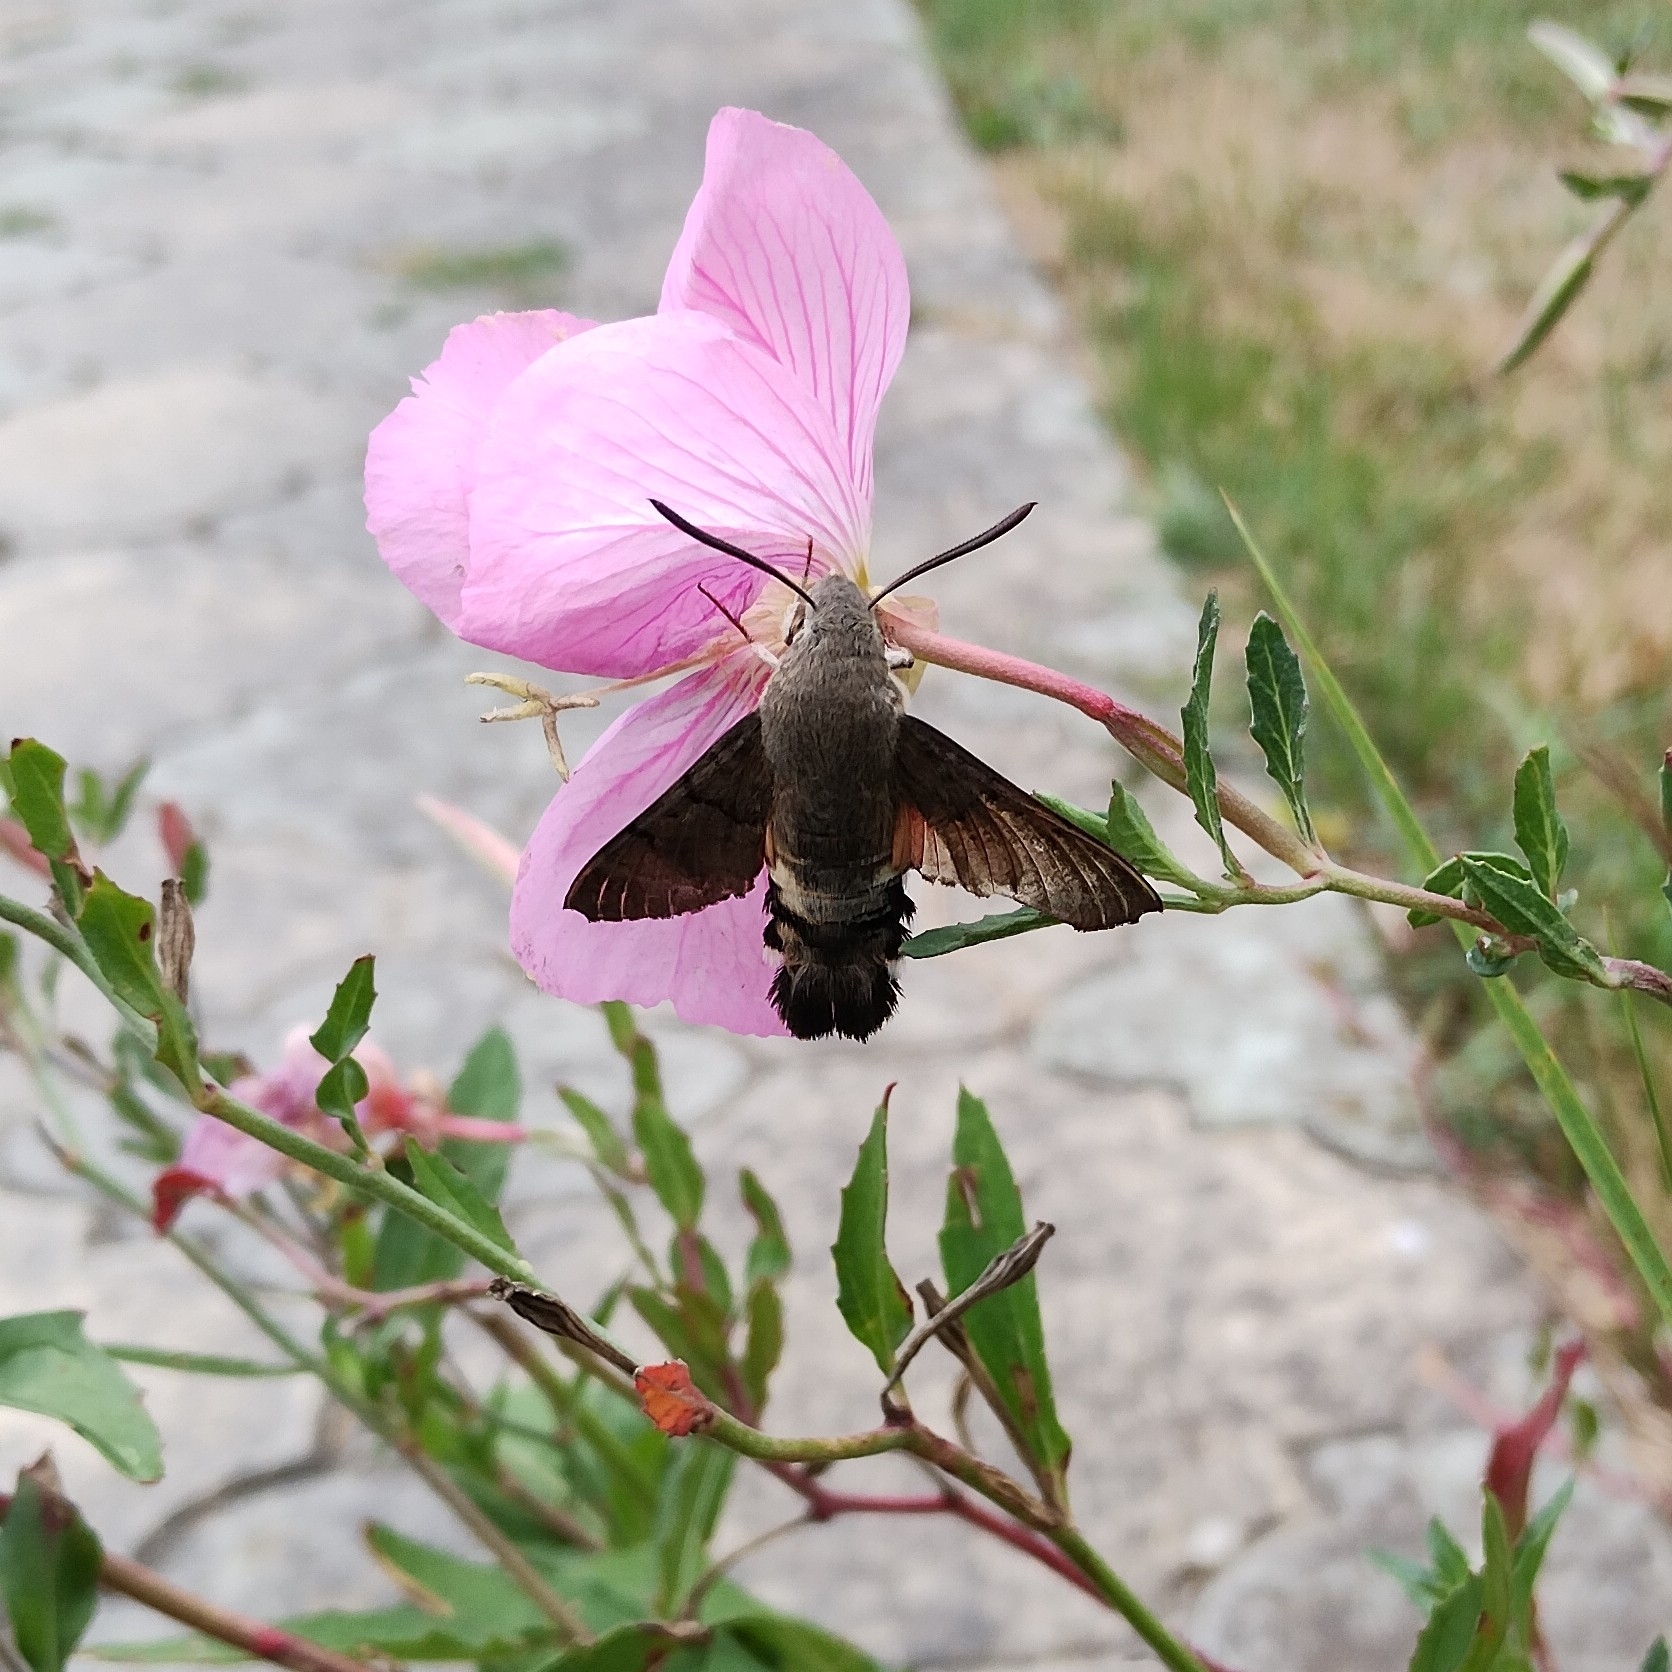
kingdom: Animalia
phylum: Arthropoda
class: Insecta
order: Lepidoptera
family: Sphingidae
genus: Macroglossum
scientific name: Macroglossum stellatarum
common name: Humming-bird hawk-moth
